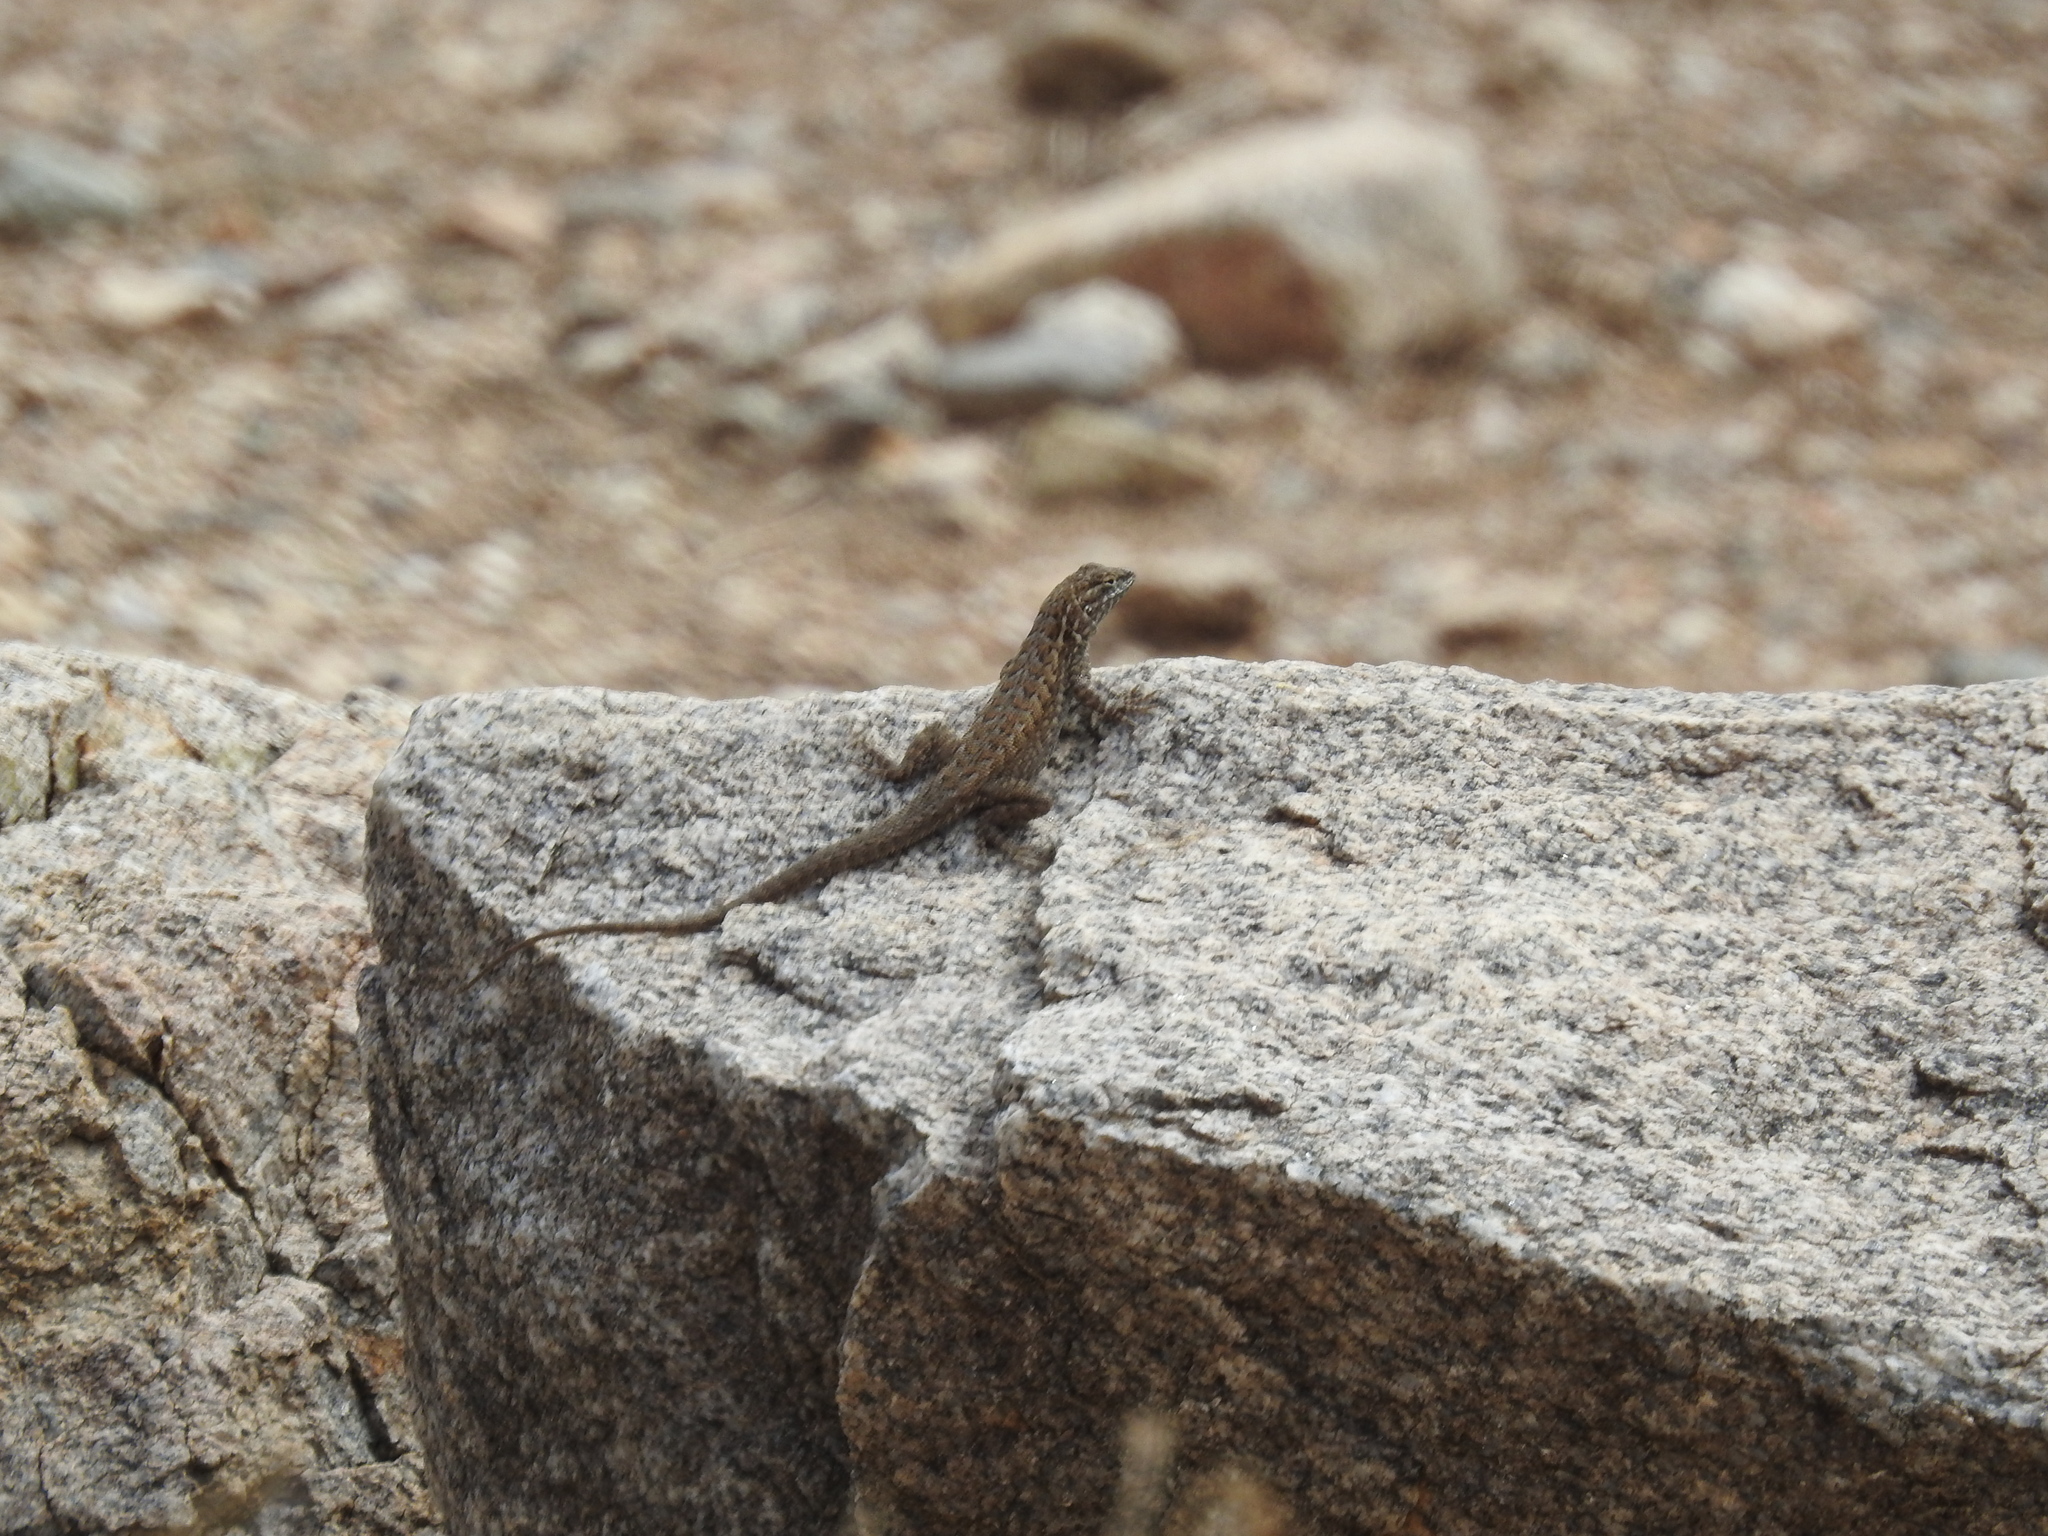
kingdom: Animalia
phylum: Chordata
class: Squamata
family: Phrynosomatidae
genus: Uta
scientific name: Uta stansburiana
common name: Side-blotched lizard
